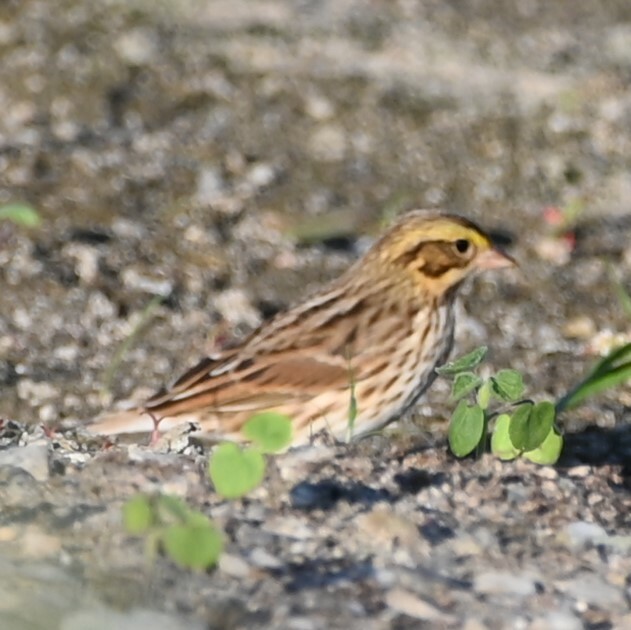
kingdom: Animalia
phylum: Chordata
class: Aves
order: Passeriformes
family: Passerellidae
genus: Passerculus
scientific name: Passerculus sandwichensis
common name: Savannah sparrow
